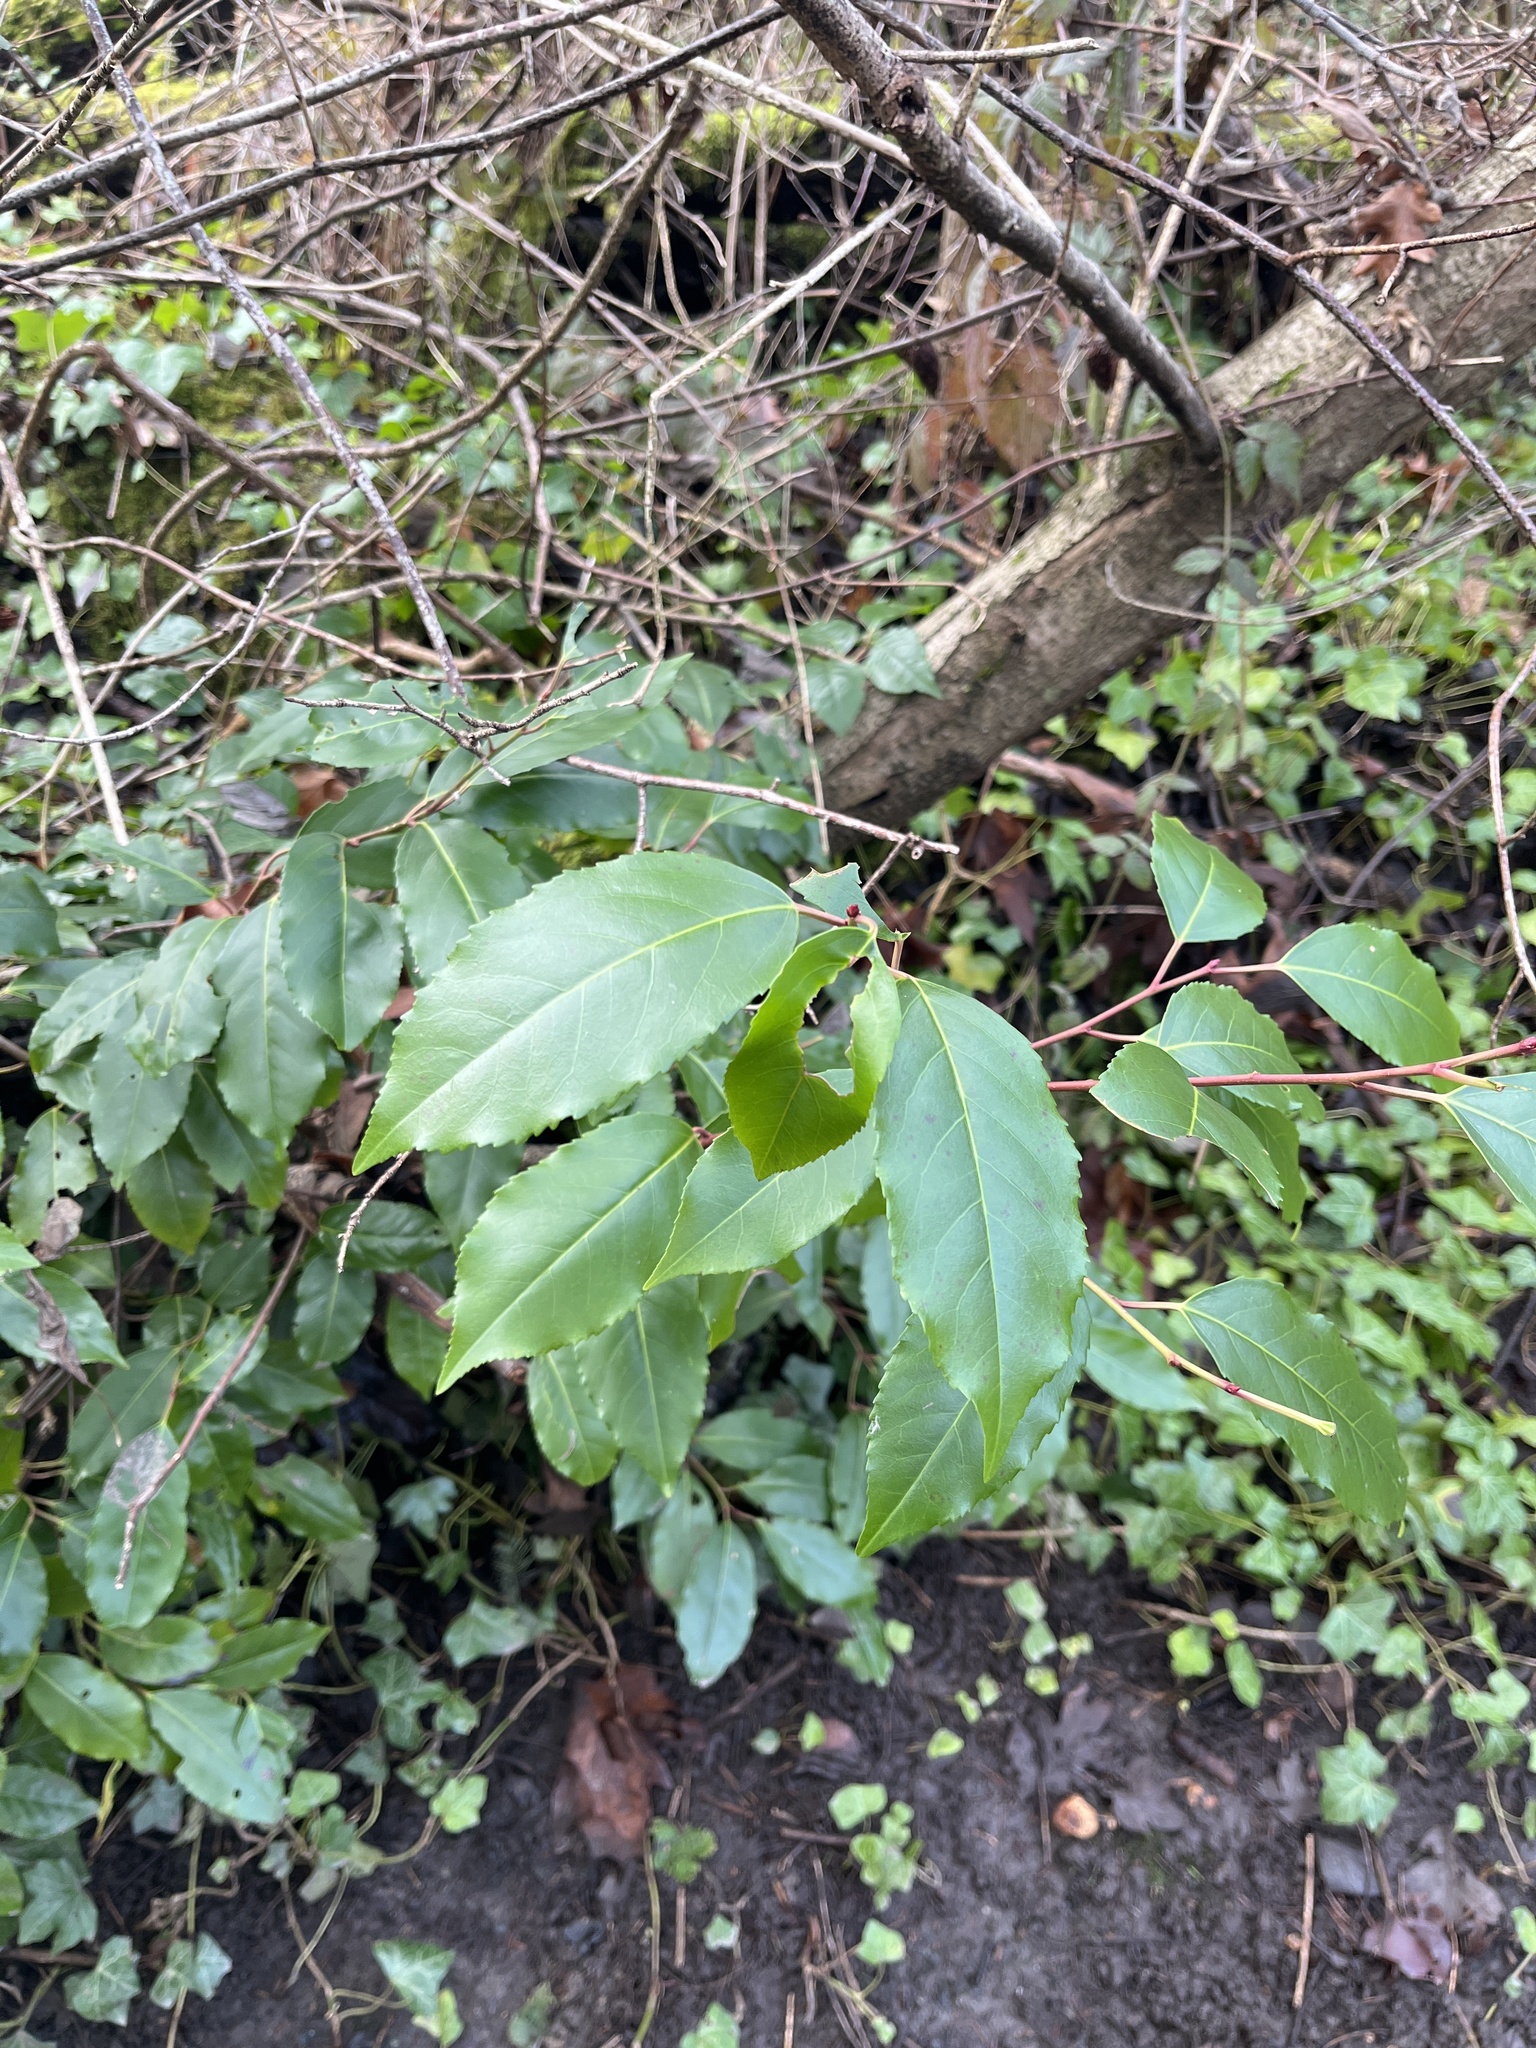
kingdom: Plantae
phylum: Tracheophyta
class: Magnoliopsida
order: Rosales
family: Rosaceae
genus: Prunus
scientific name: Prunus lusitanica
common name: Portugal laurel
